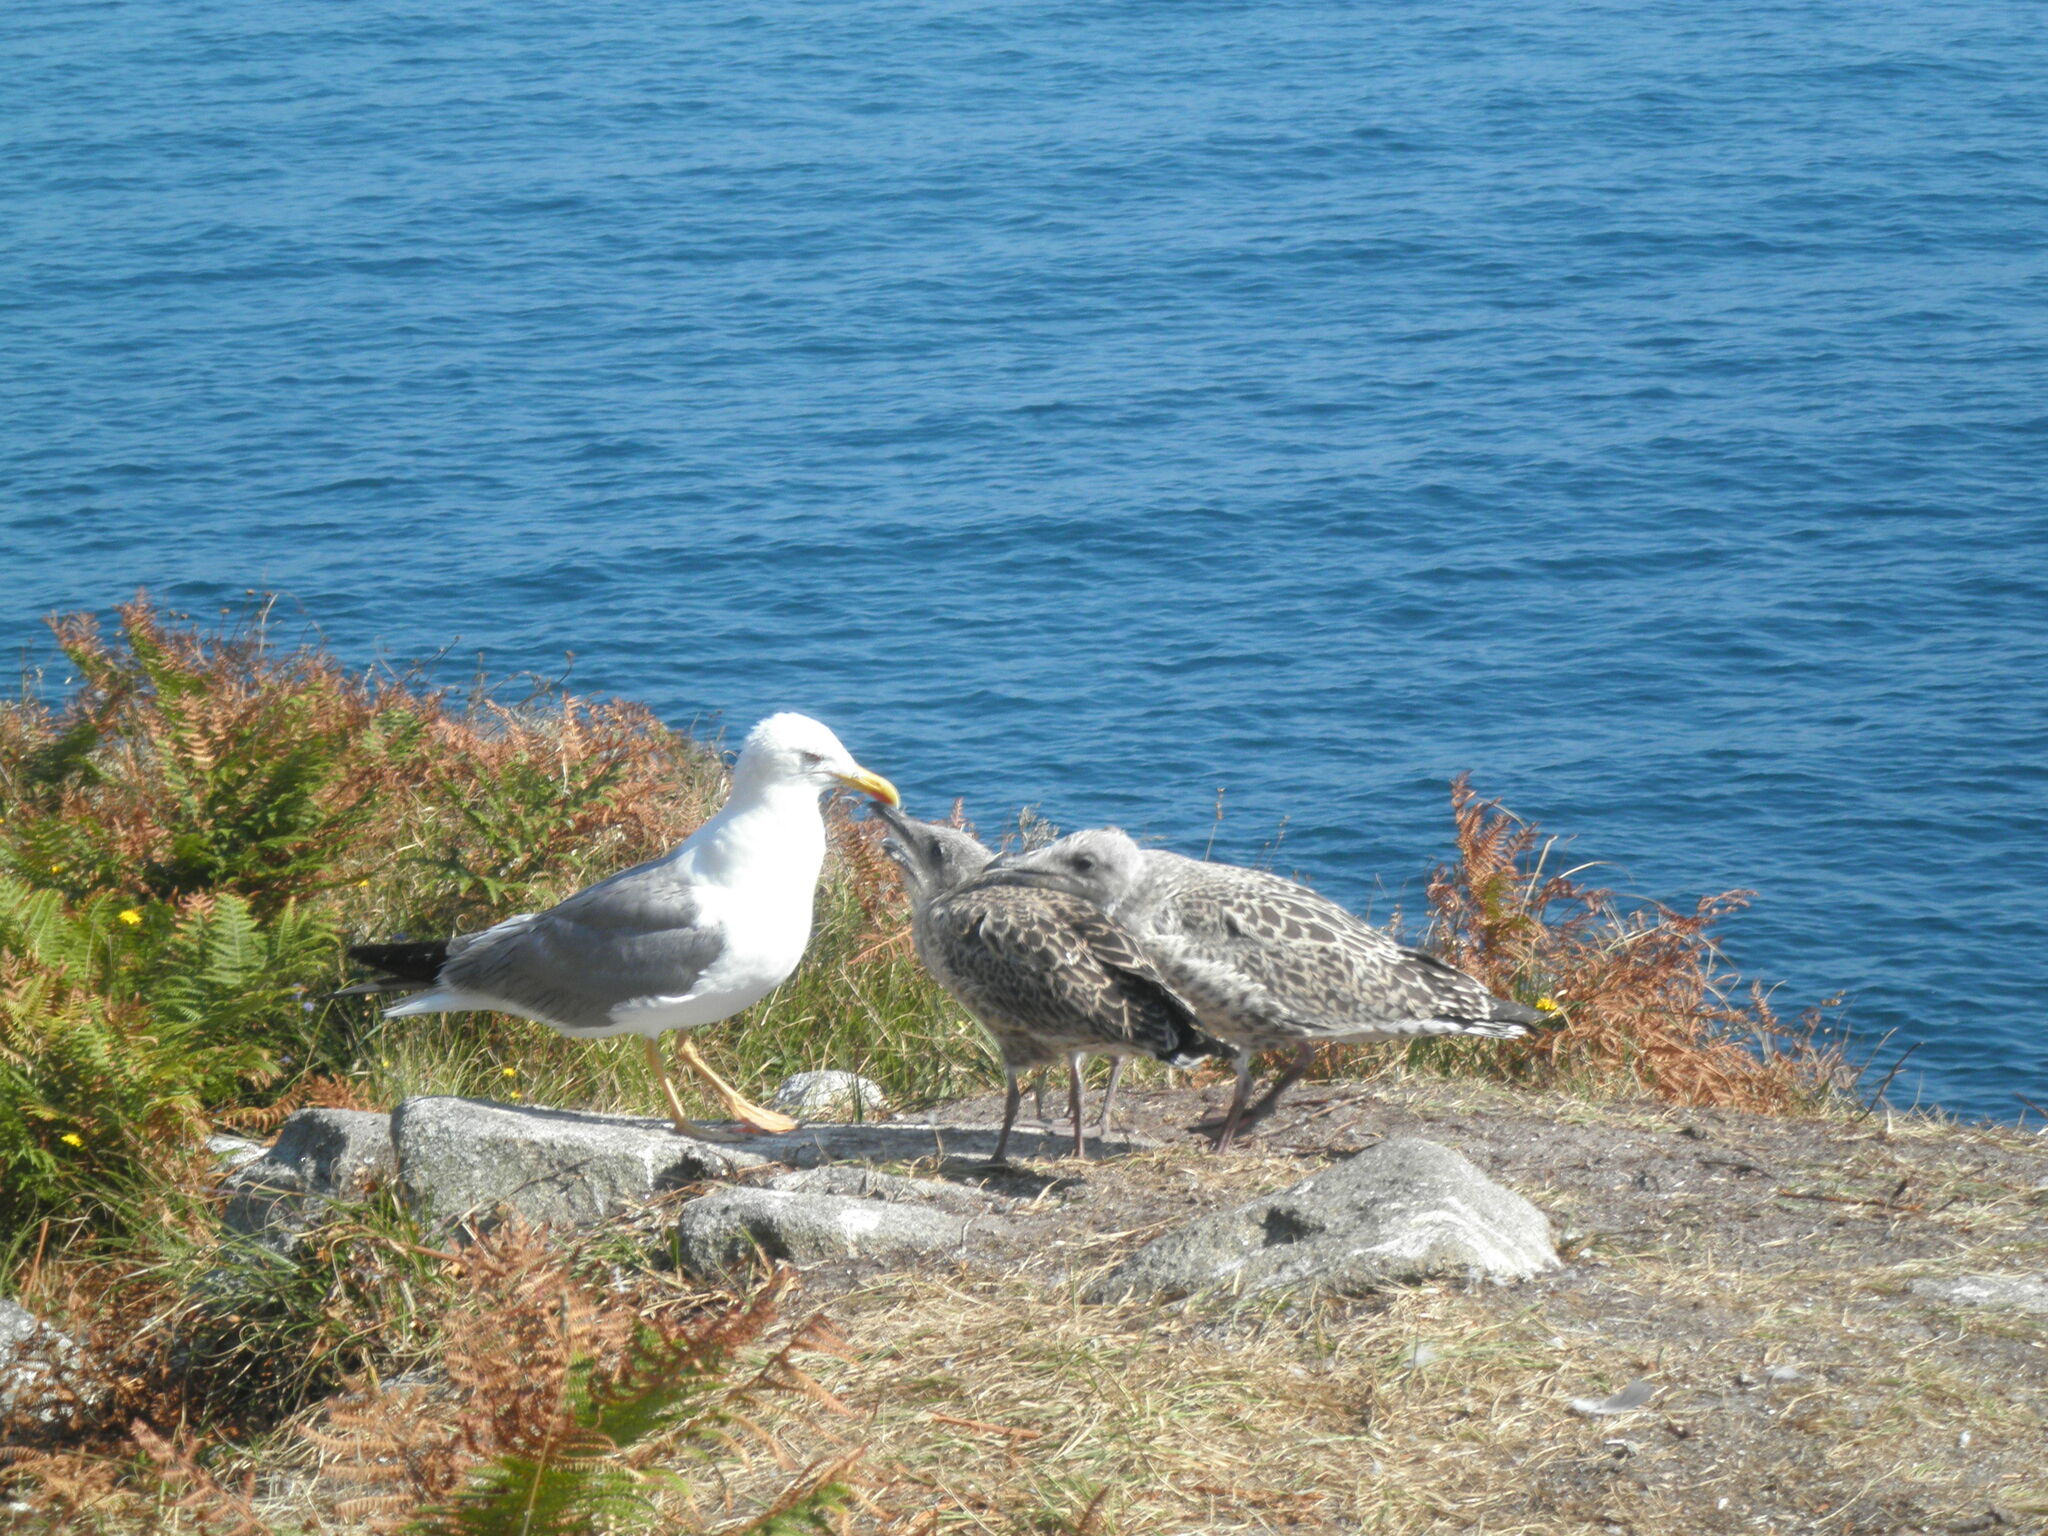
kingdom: Animalia
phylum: Chordata
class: Aves
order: Charadriiformes
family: Laridae
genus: Larus
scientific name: Larus michahellis
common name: Yellow-legged gull
